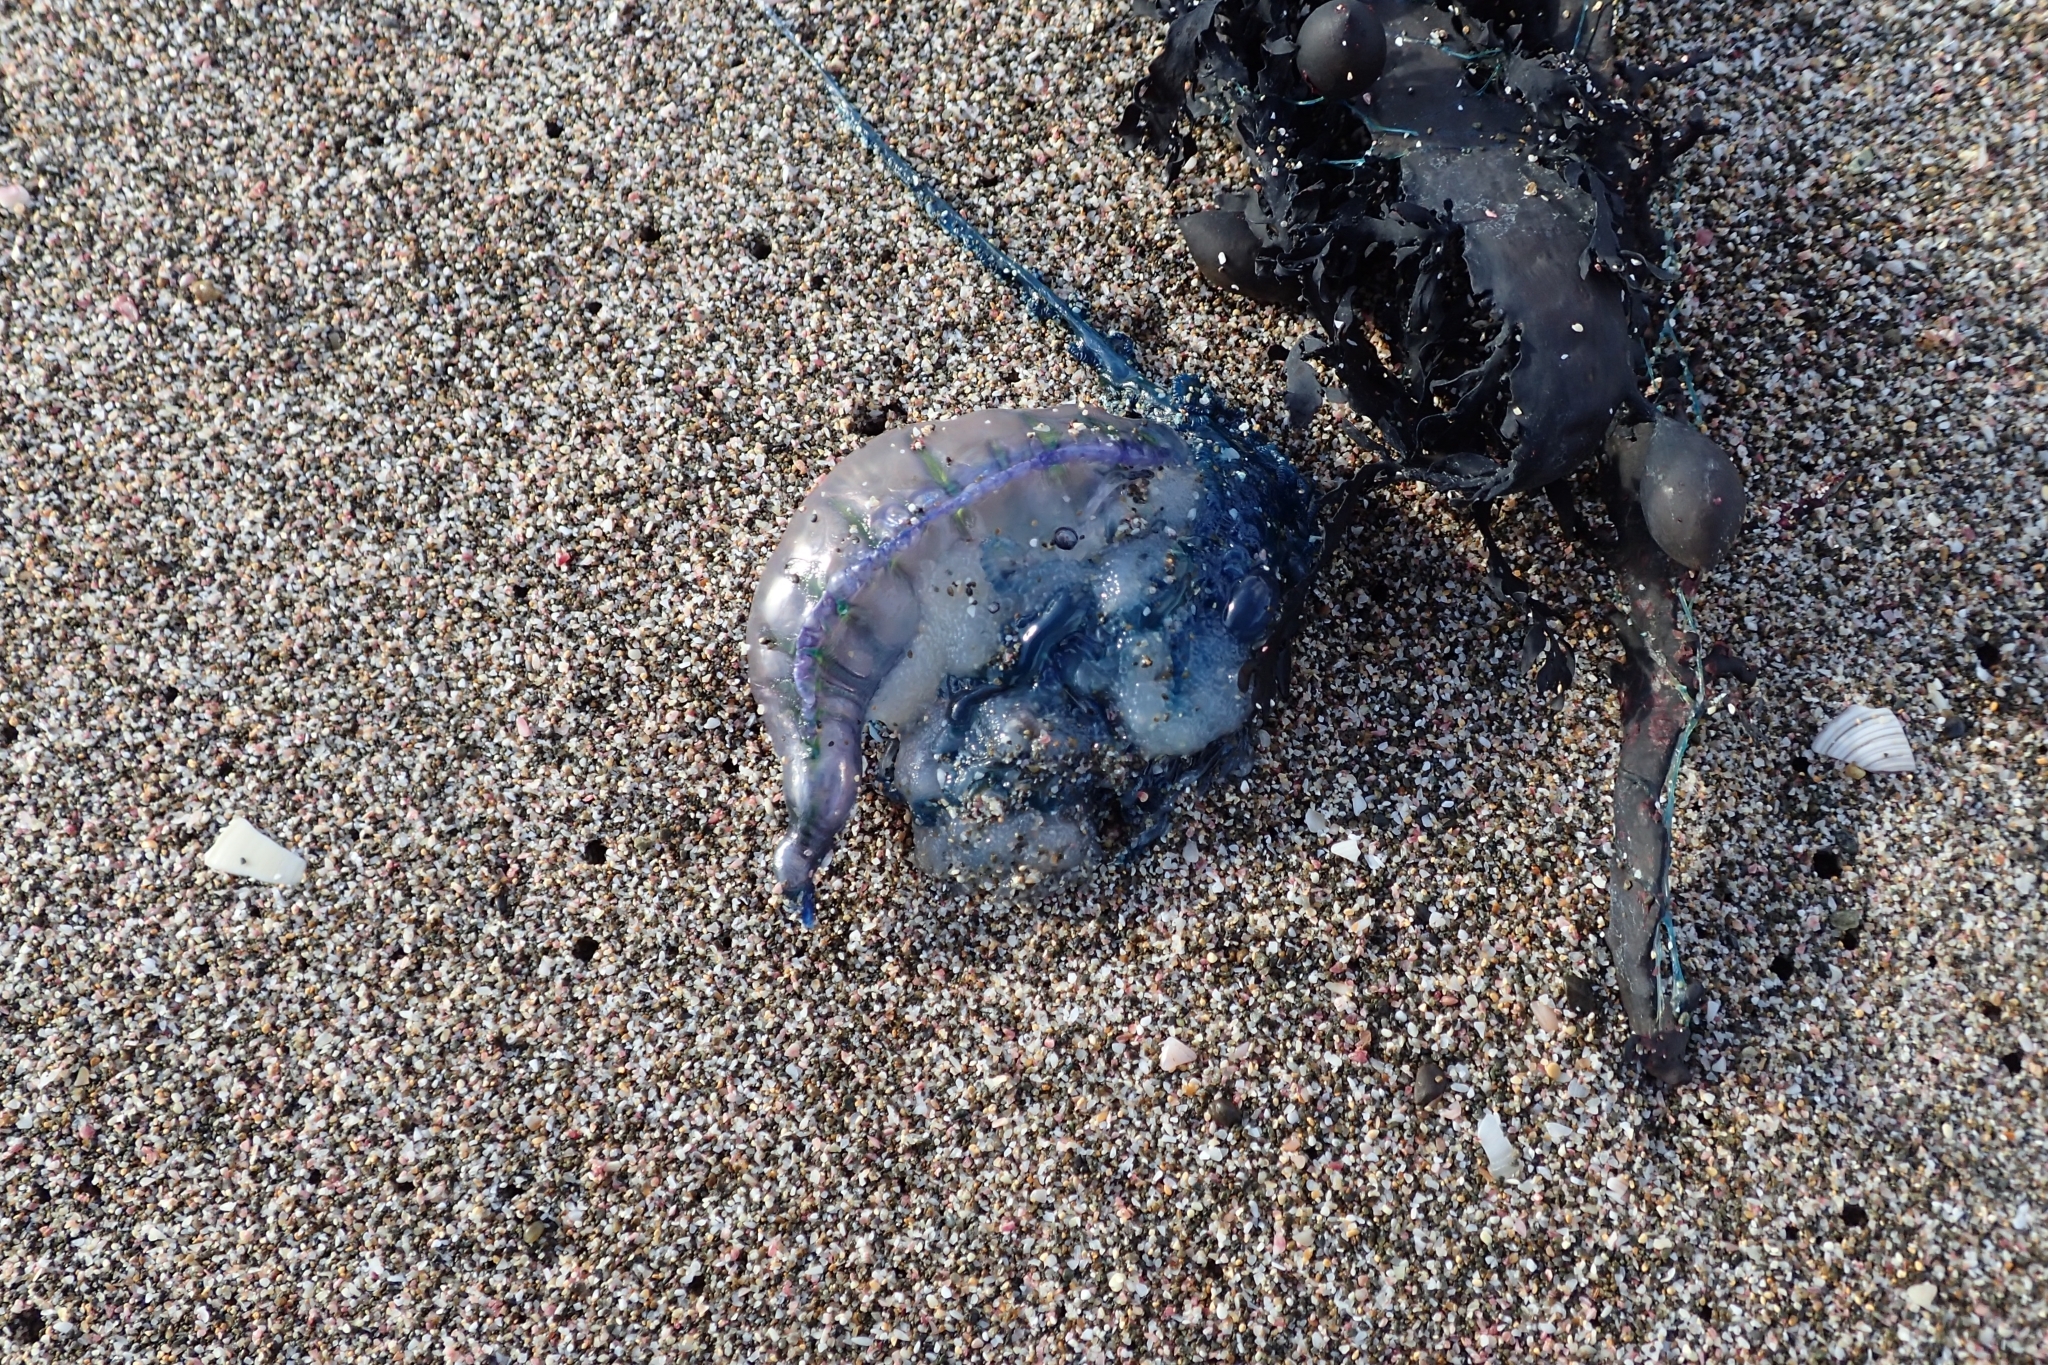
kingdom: Animalia
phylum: Cnidaria
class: Hydrozoa
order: Siphonophorae
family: Physaliidae
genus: Physalia
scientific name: Physalia physalis
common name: Portuguese man-of-war
